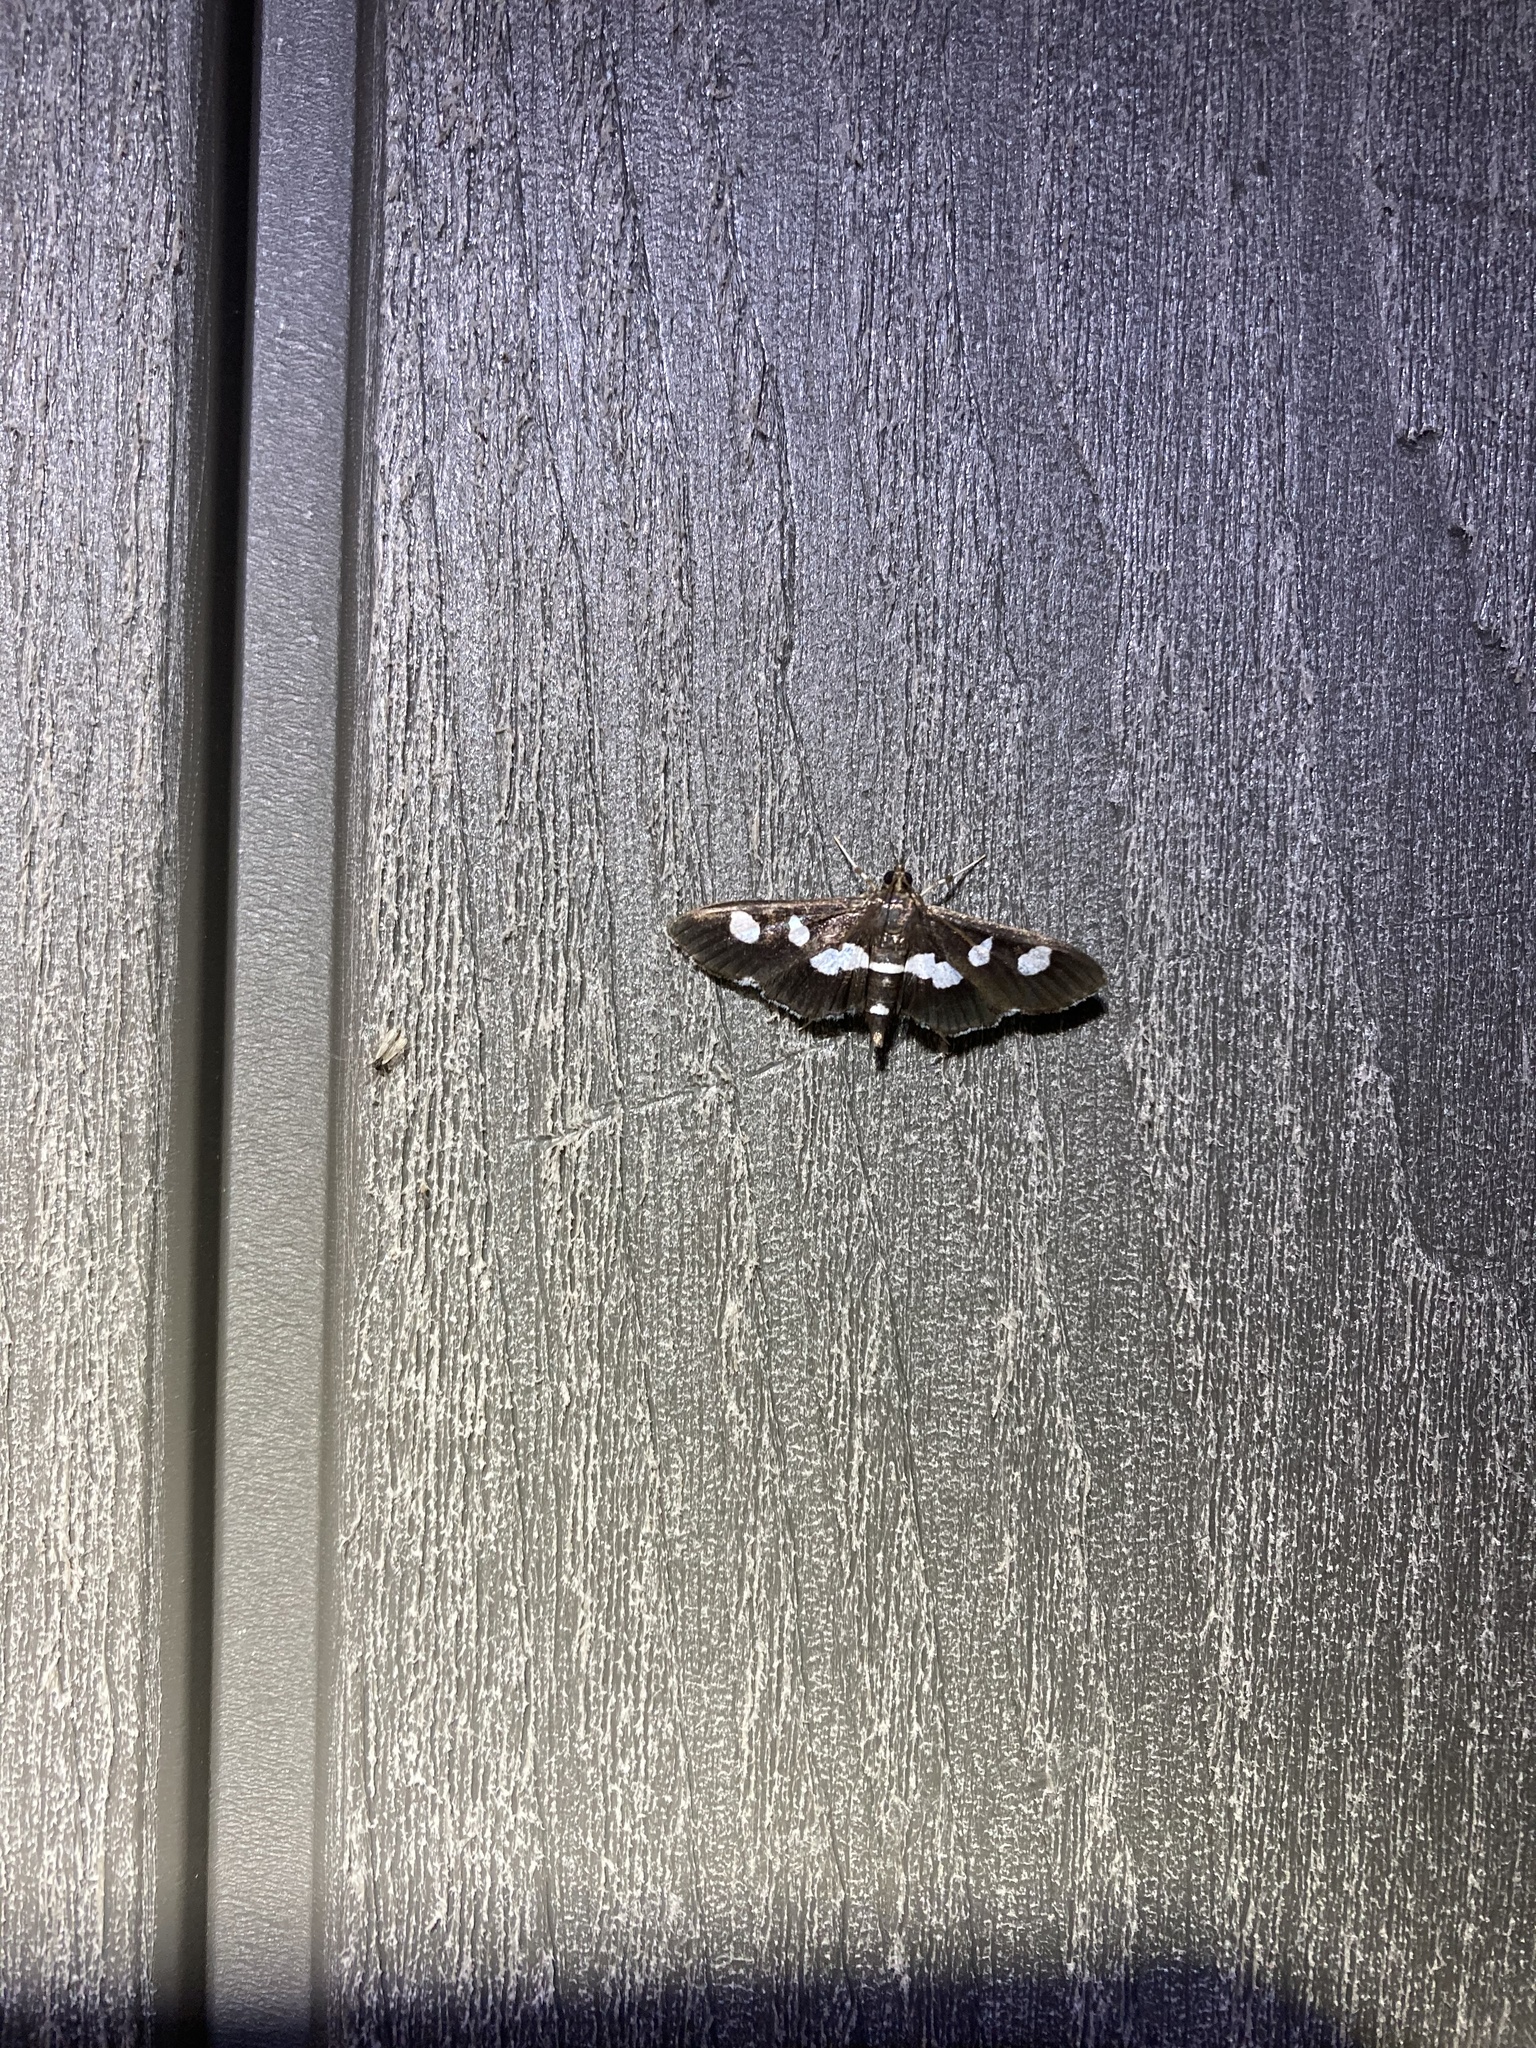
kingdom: Animalia
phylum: Arthropoda
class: Insecta
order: Lepidoptera
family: Crambidae
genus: Desmia
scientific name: Desmia
